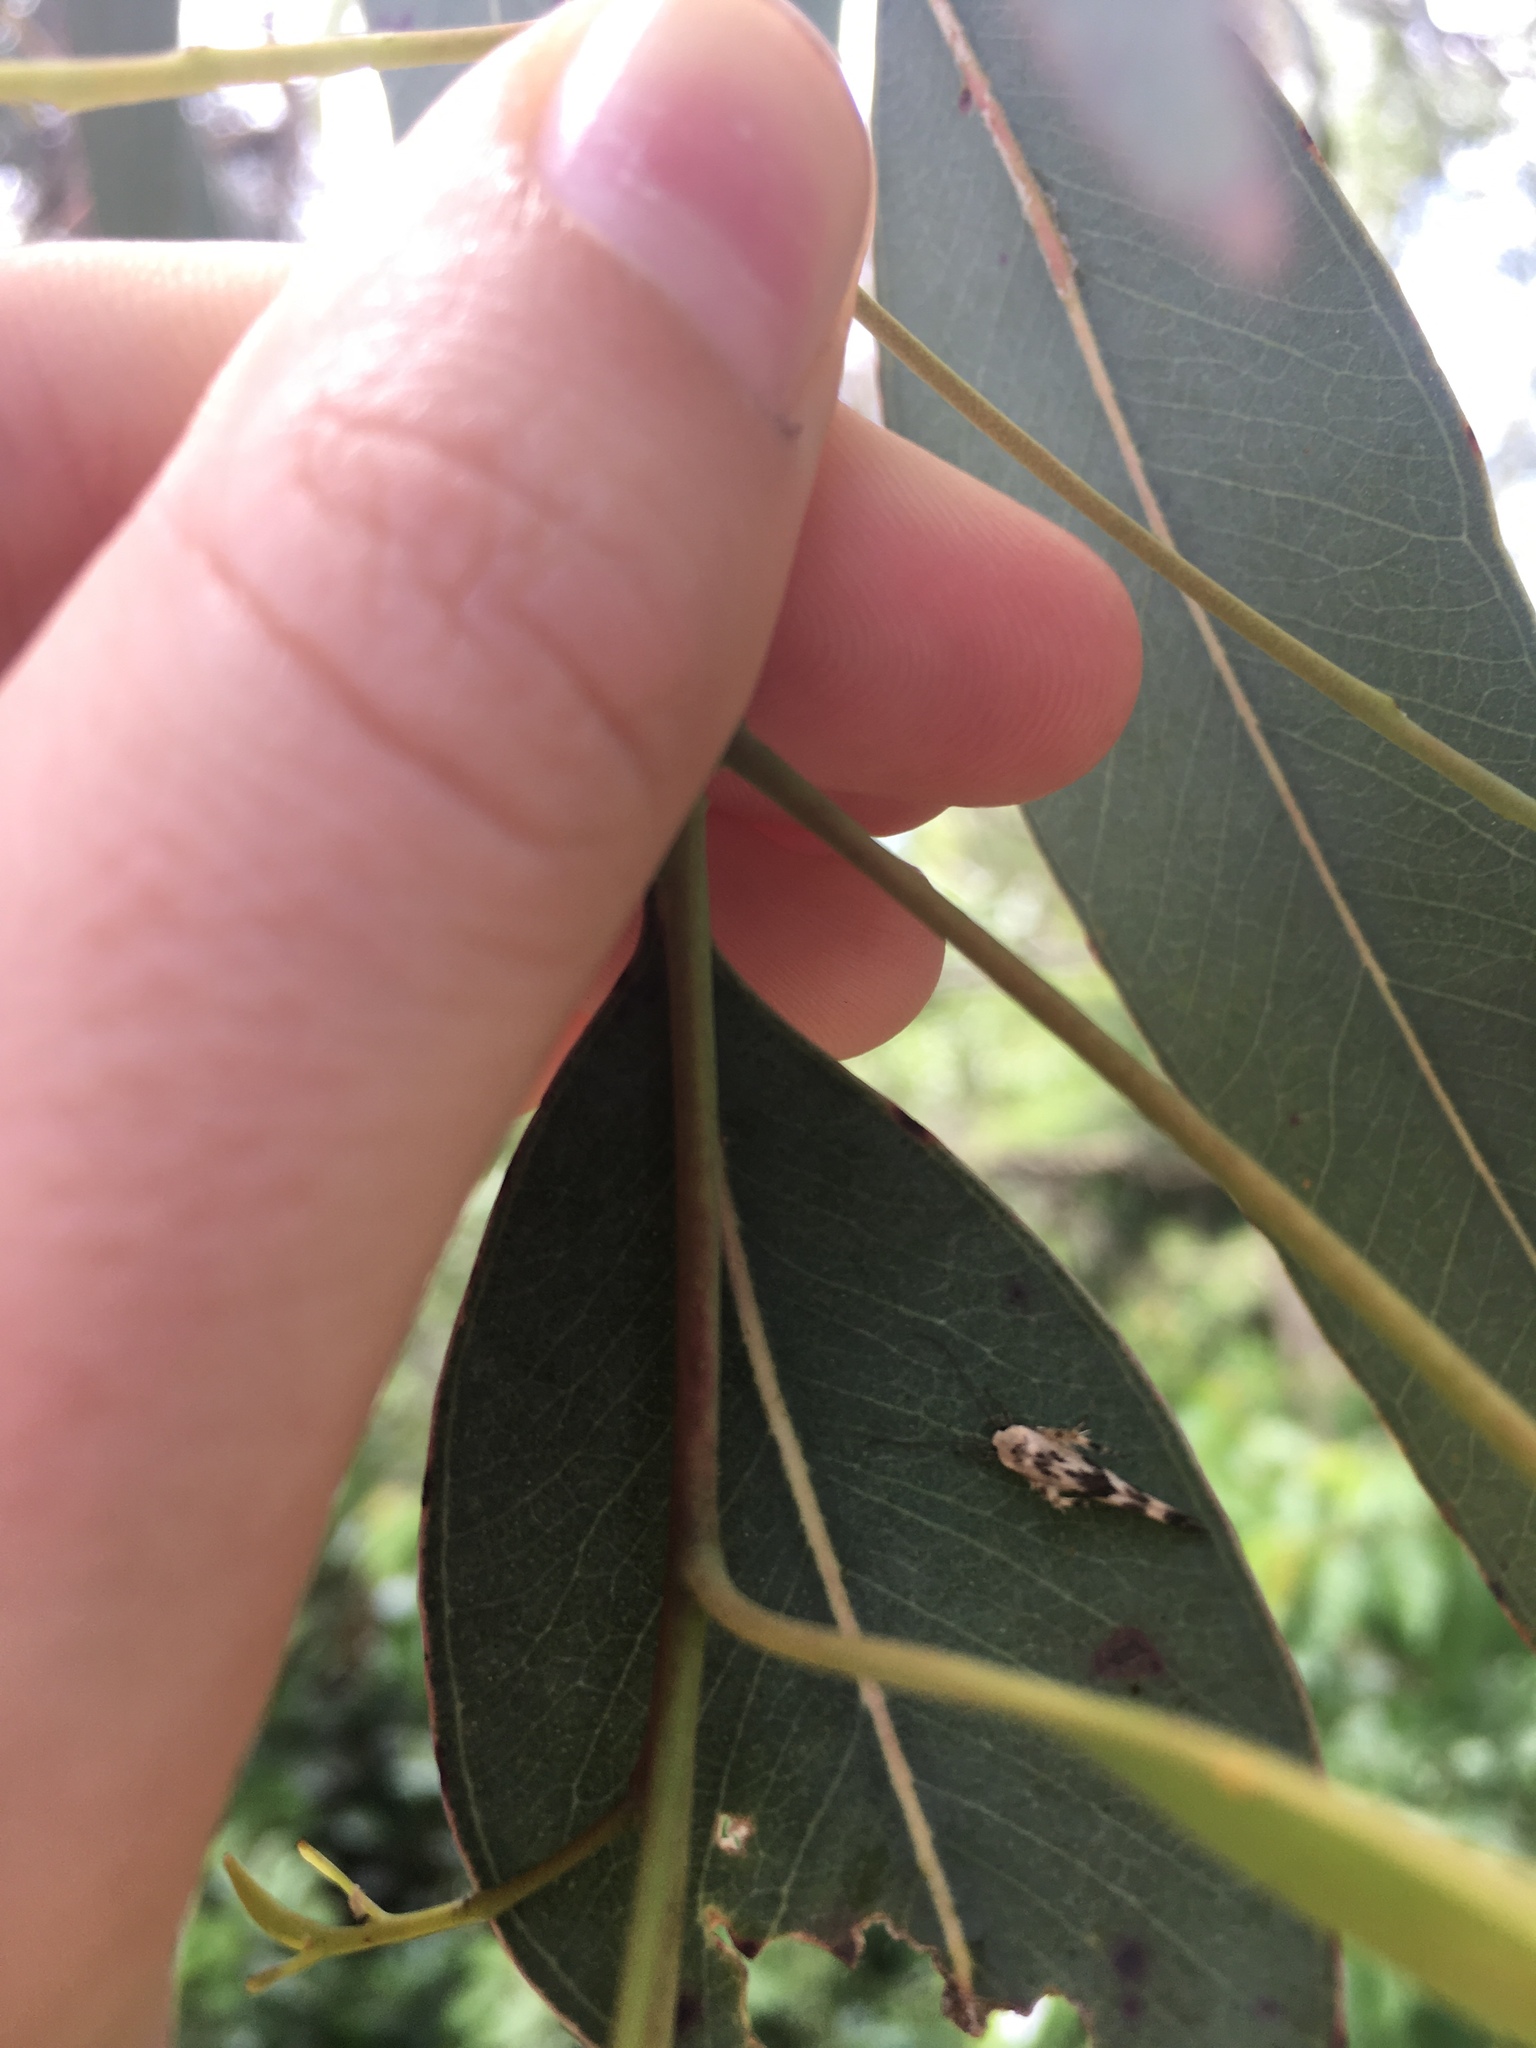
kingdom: Animalia
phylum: Arthropoda
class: Insecta
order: Lepidoptera
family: Stathmopodidae
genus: Stathmopoda
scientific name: Stathmopoda melanochra
